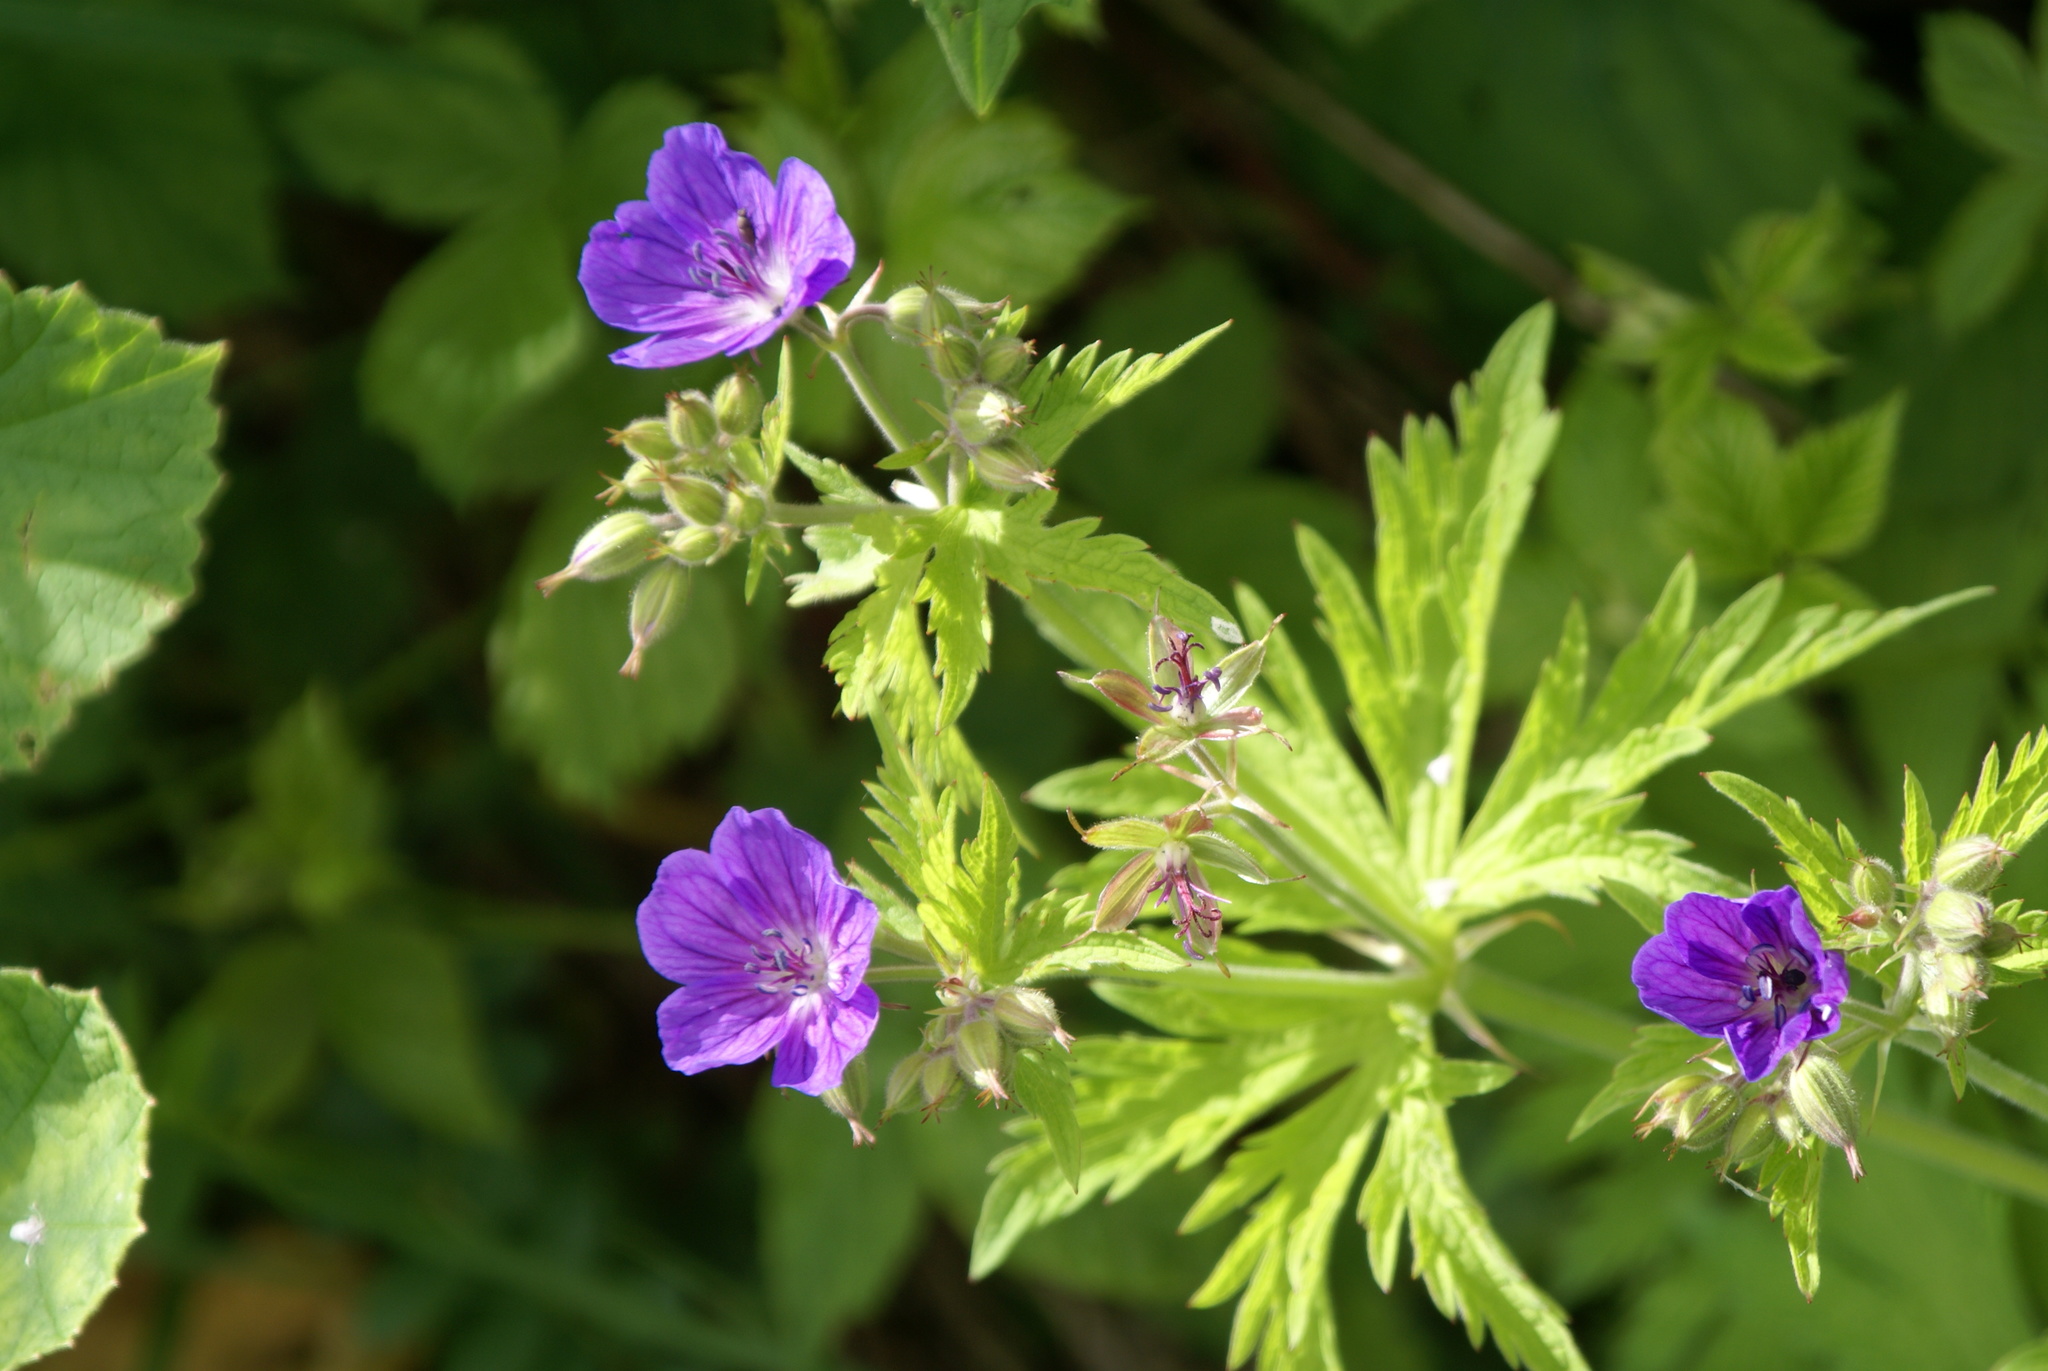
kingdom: Plantae
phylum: Tracheophyta
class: Magnoliopsida
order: Geraniales
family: Geraniaceae
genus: Geranium
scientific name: Geranium sylvaticum
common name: Wood crane's-bill
